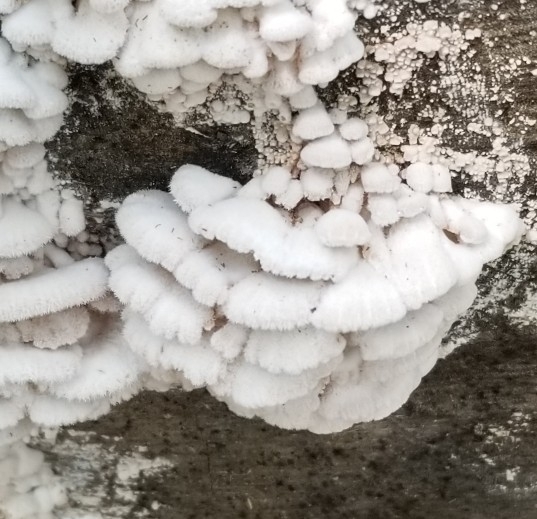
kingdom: Fungi
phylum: Basidiomycota
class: Agaricomycetes
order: Agaricales
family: Schizophyllaceae
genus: Schizophyllum
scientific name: Schizophyllum commune
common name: Common porecrust
